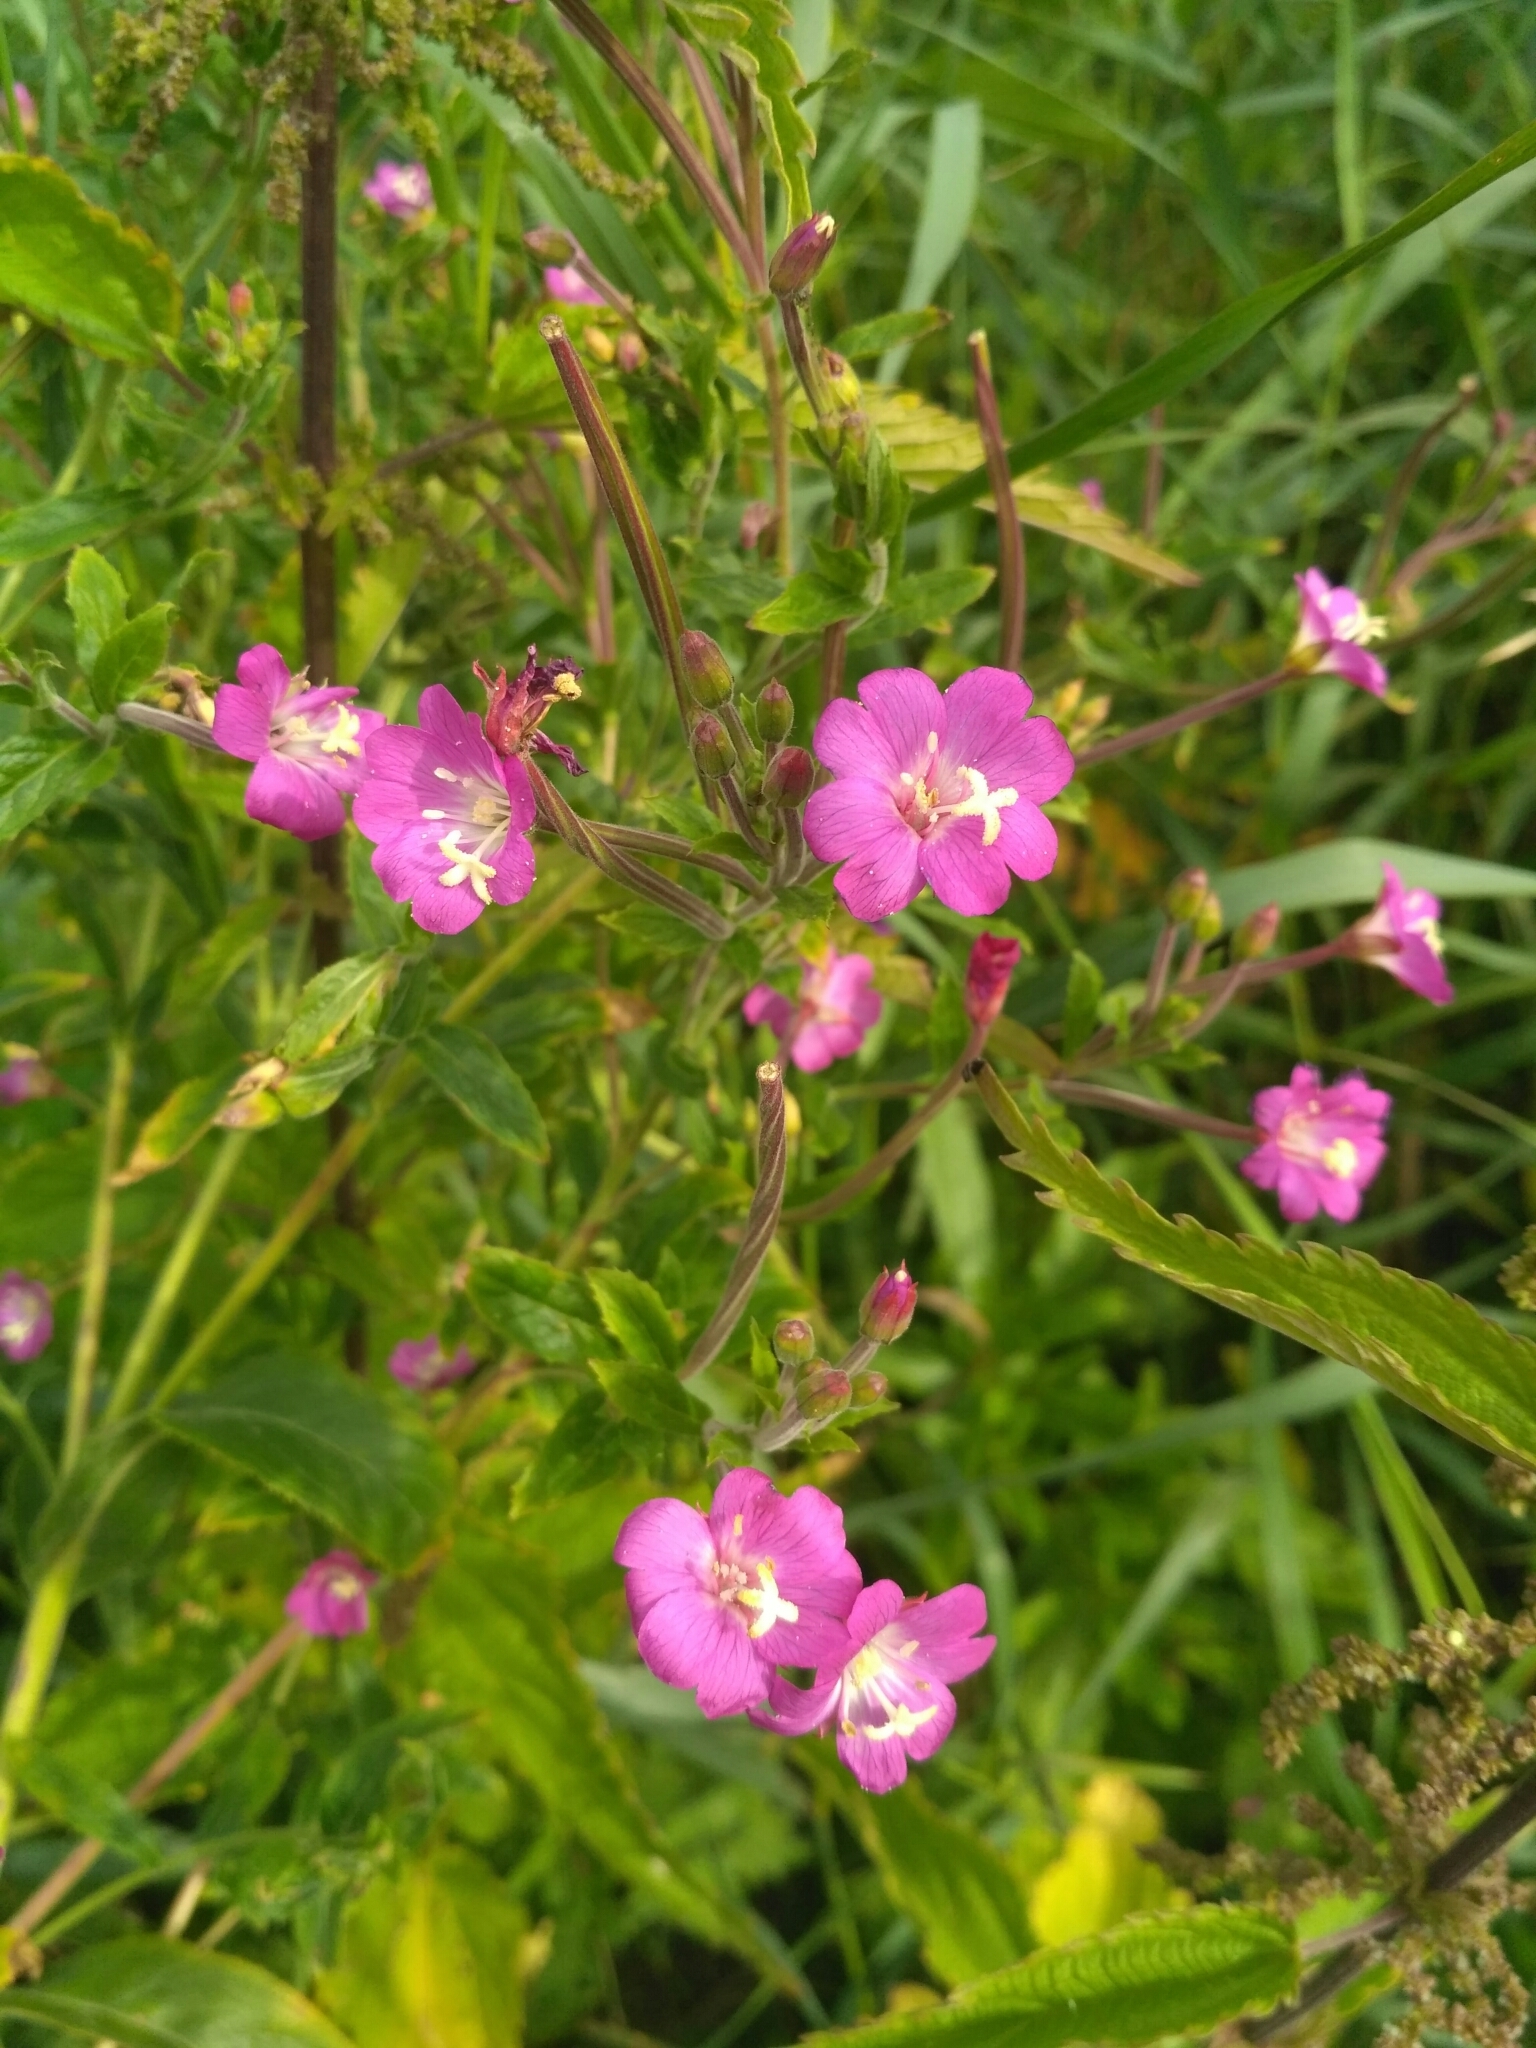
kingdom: Plantae
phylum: Tracheophyta
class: Magnoliopsida
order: Myrtales
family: Onagraceae
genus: Epilobium
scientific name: Epilobium hirsutum
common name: Great willowherb
